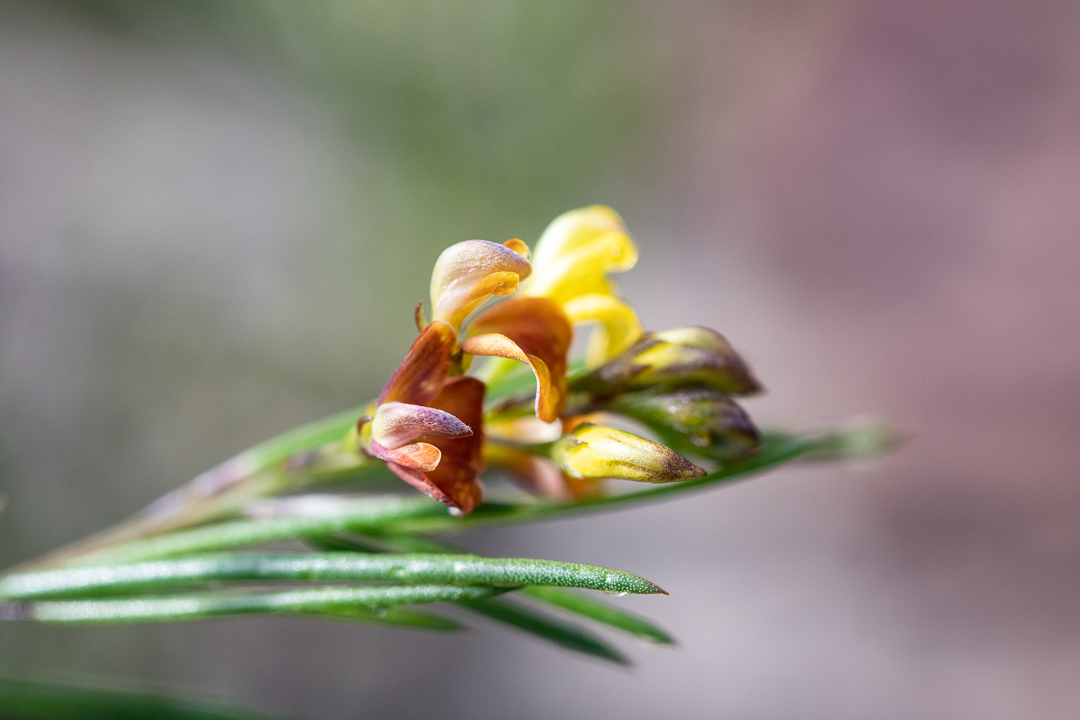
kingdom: Plantae
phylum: Tracheophyta
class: Magnoliopsida
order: Fabales
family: Fabaceae
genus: Aspalathus
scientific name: Aspalathus linearis
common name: Rooibos-tea
